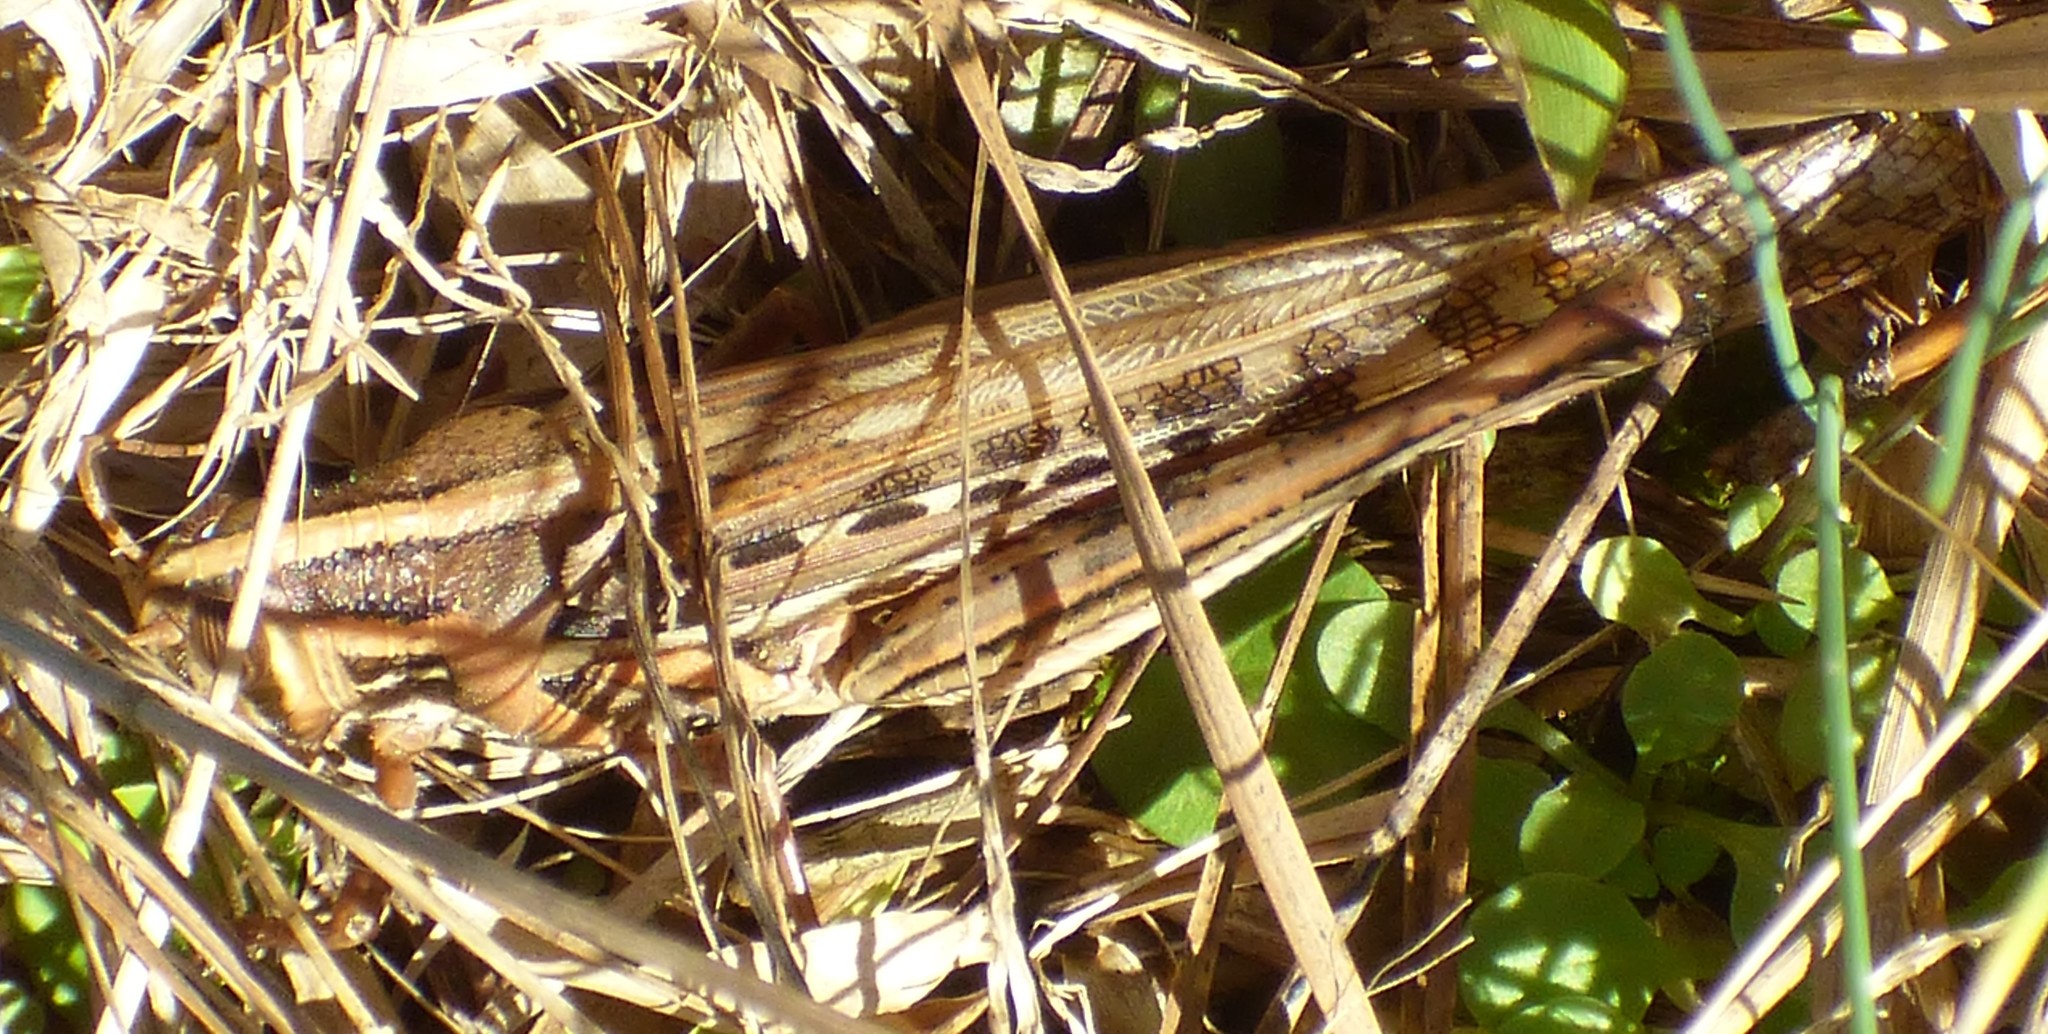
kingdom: Animalia
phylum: Arthropoda
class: Insecta
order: Orthoptera
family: Acrididae
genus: Schistocerca
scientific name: Schistocerca americana
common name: American bird locust
